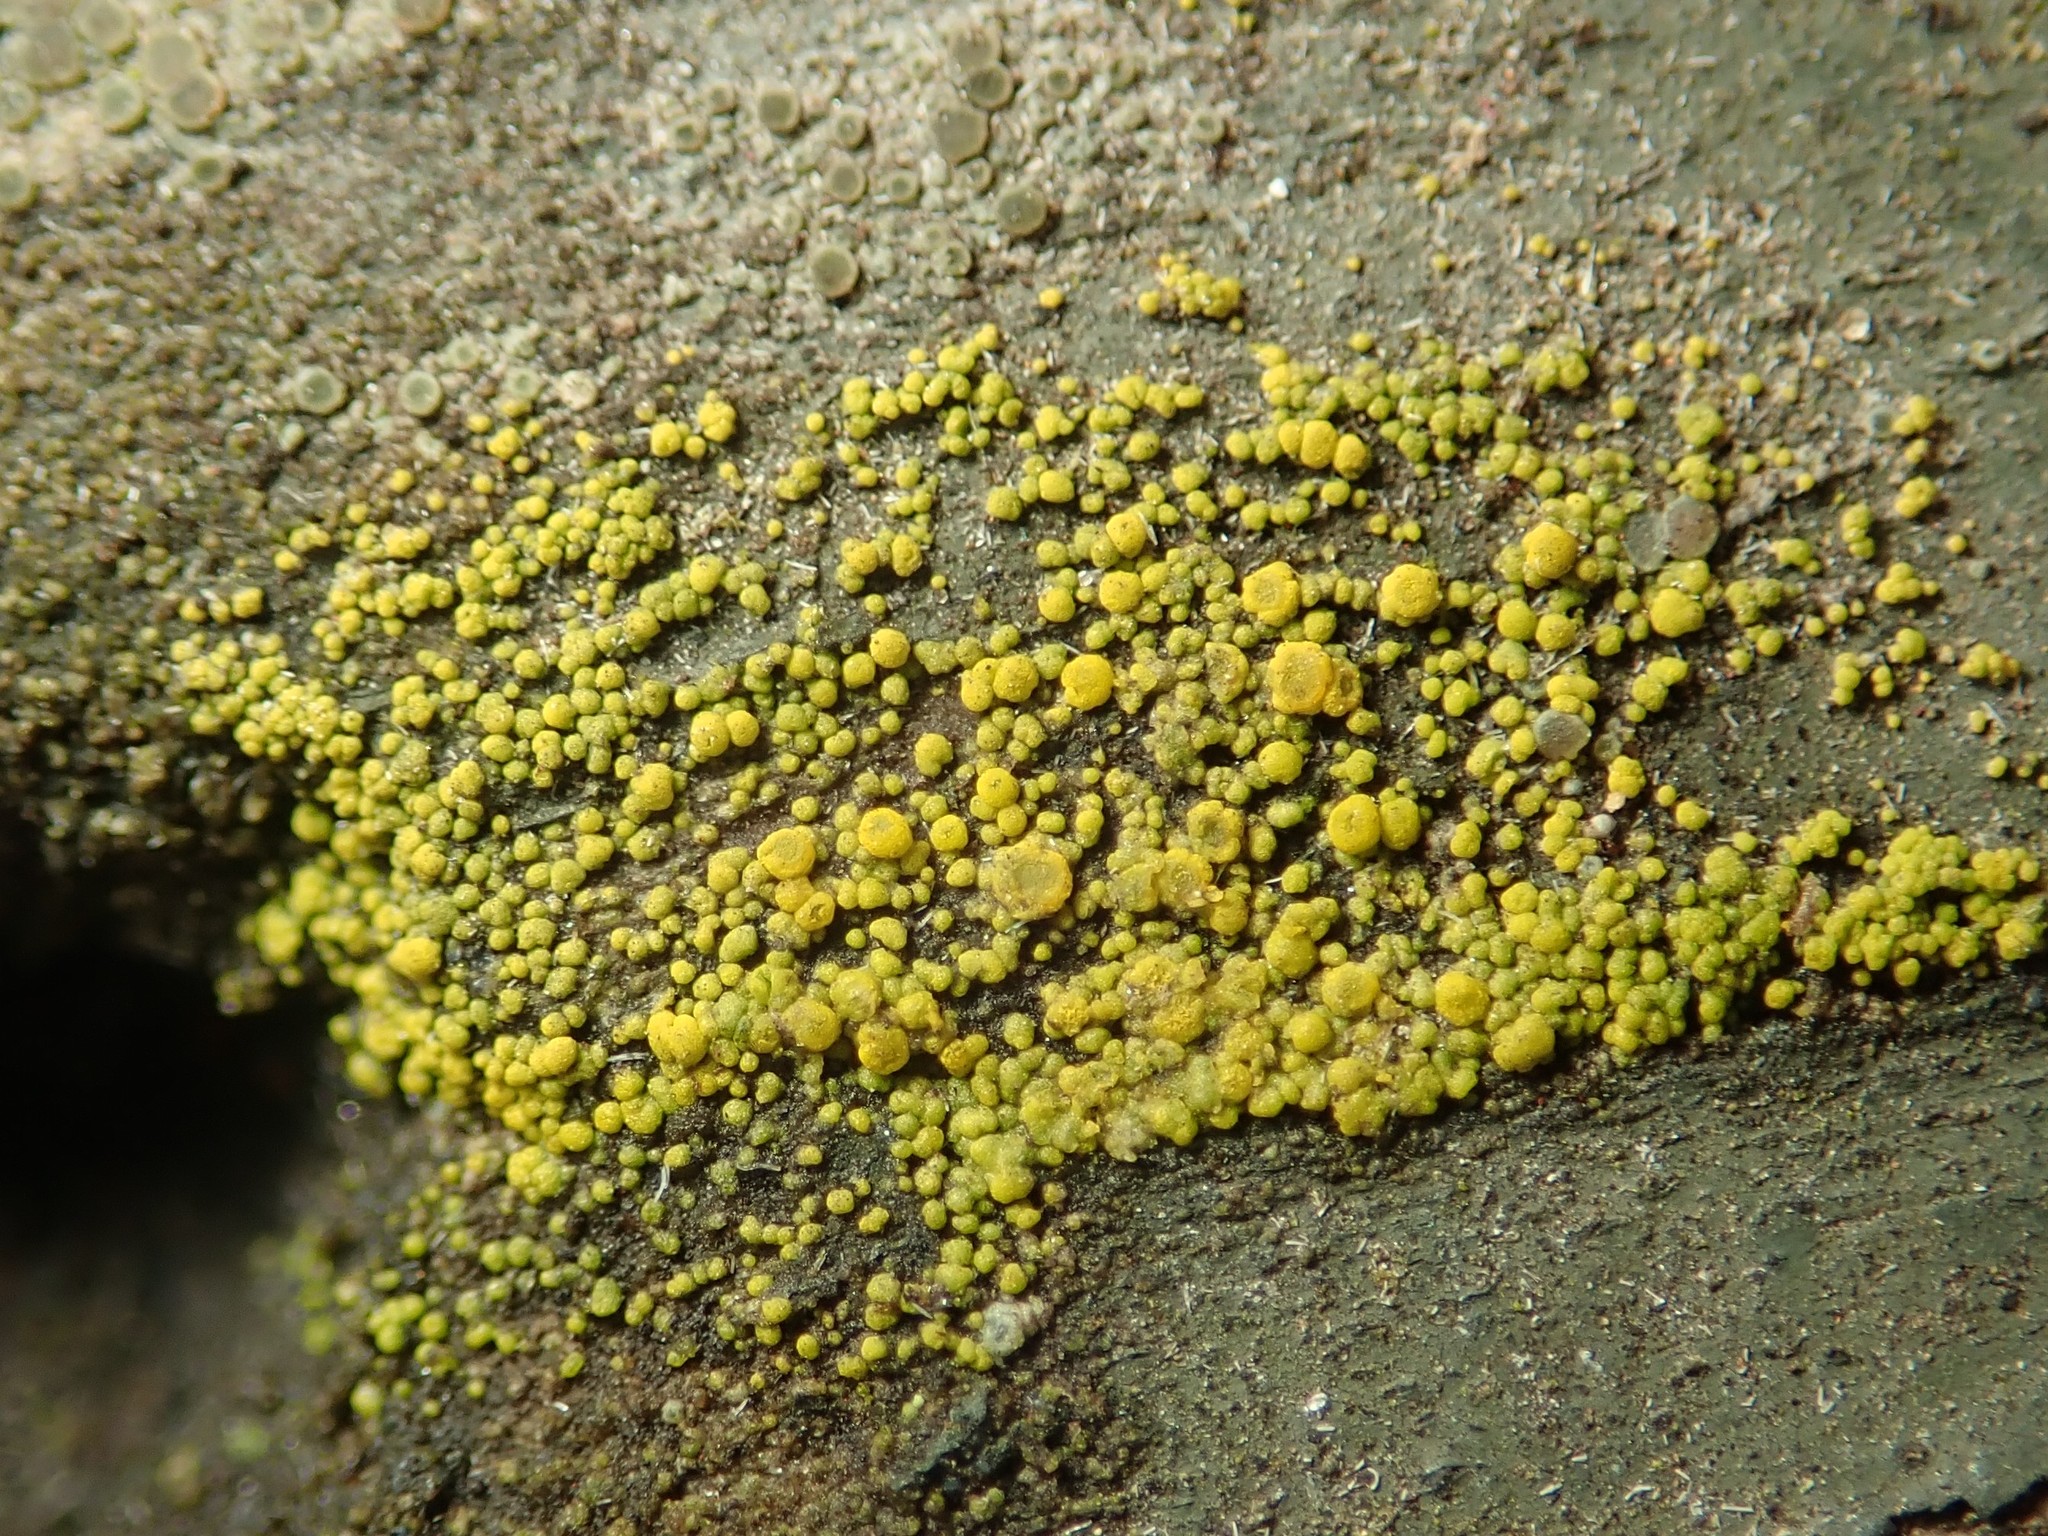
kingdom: Fungi
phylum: Ascomycota
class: Candelariomycetes
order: Candelariales
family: Candelariaceae
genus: Candelariella
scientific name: Candelariella vitellina
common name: Common goldspeck
